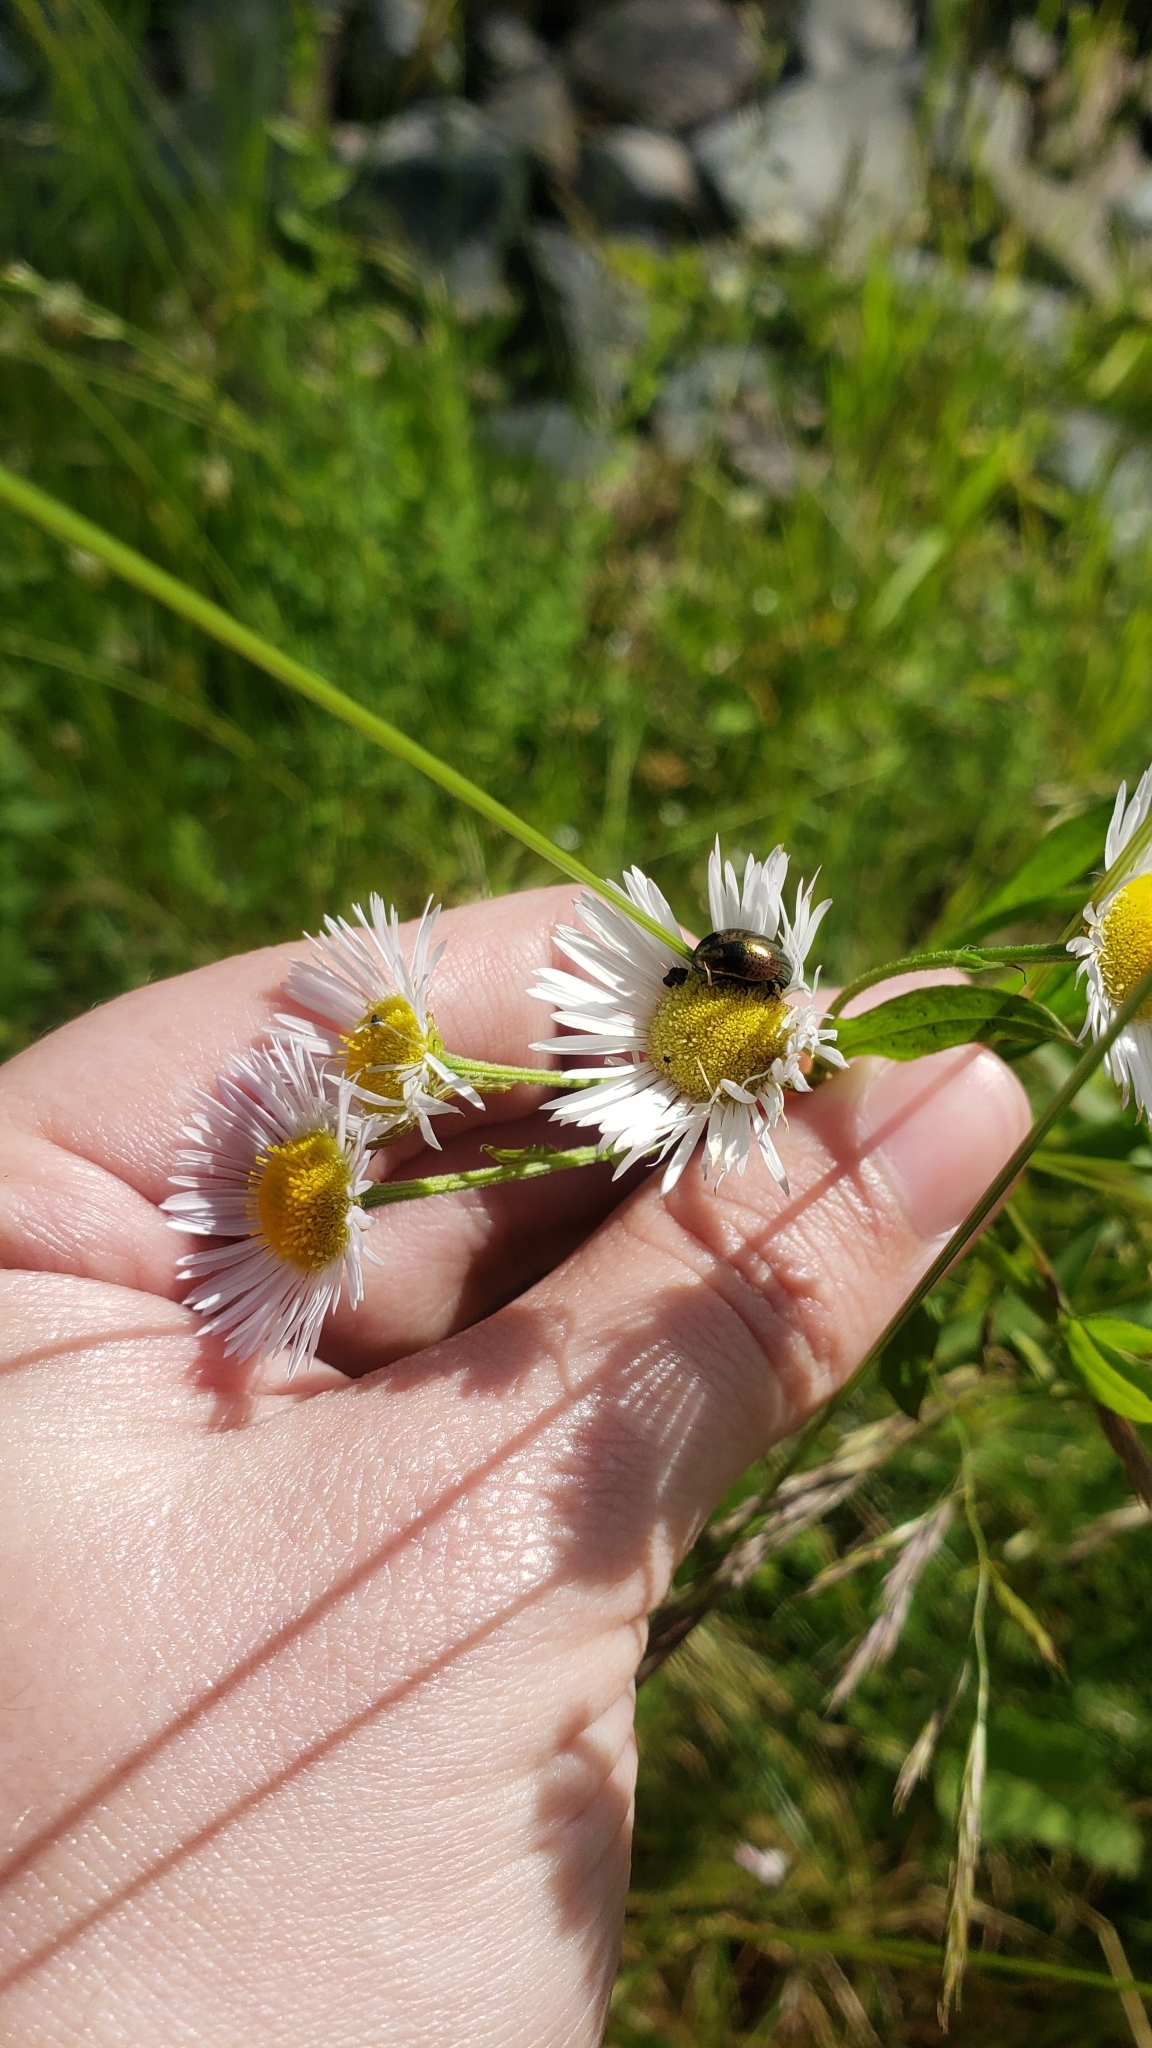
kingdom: Animalia
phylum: Arthropoda
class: Insecta
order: Coleoptera
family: Chrysomelidae
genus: Chrysolina
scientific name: Chrysolina hyperici
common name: St. johnswort beetle
